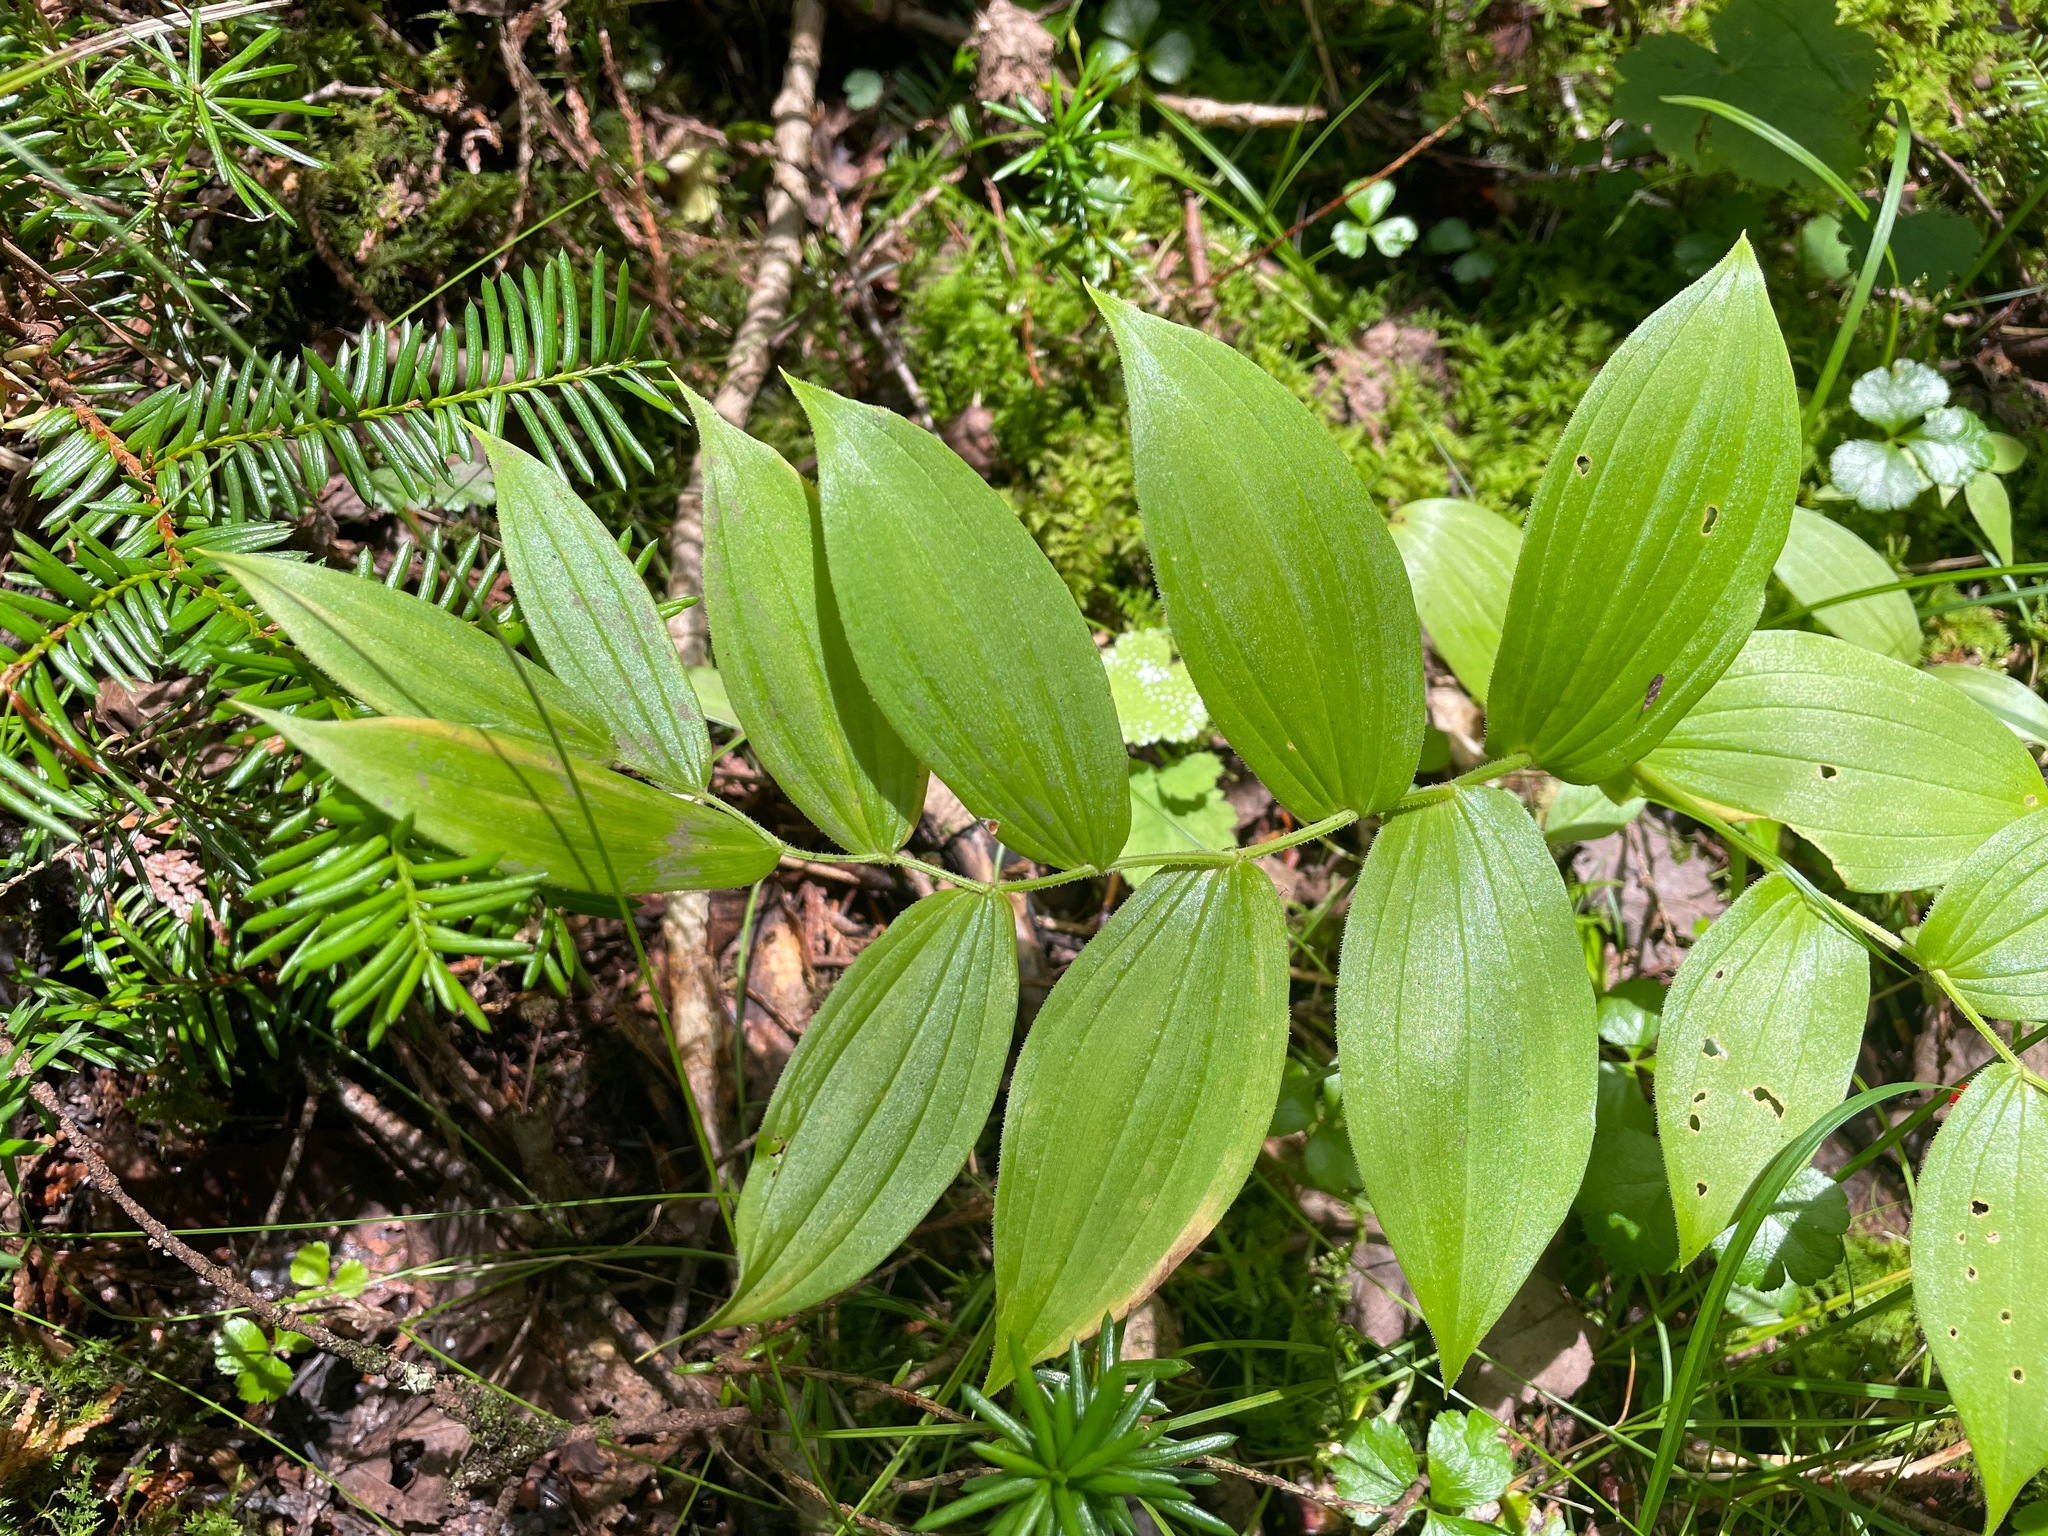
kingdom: Plantae
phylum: Tracheophyta
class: Liliopsida
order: Liliales
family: Liliaceae
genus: Streptopus
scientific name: Streptopus lanceolatus
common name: Rose mandarin
